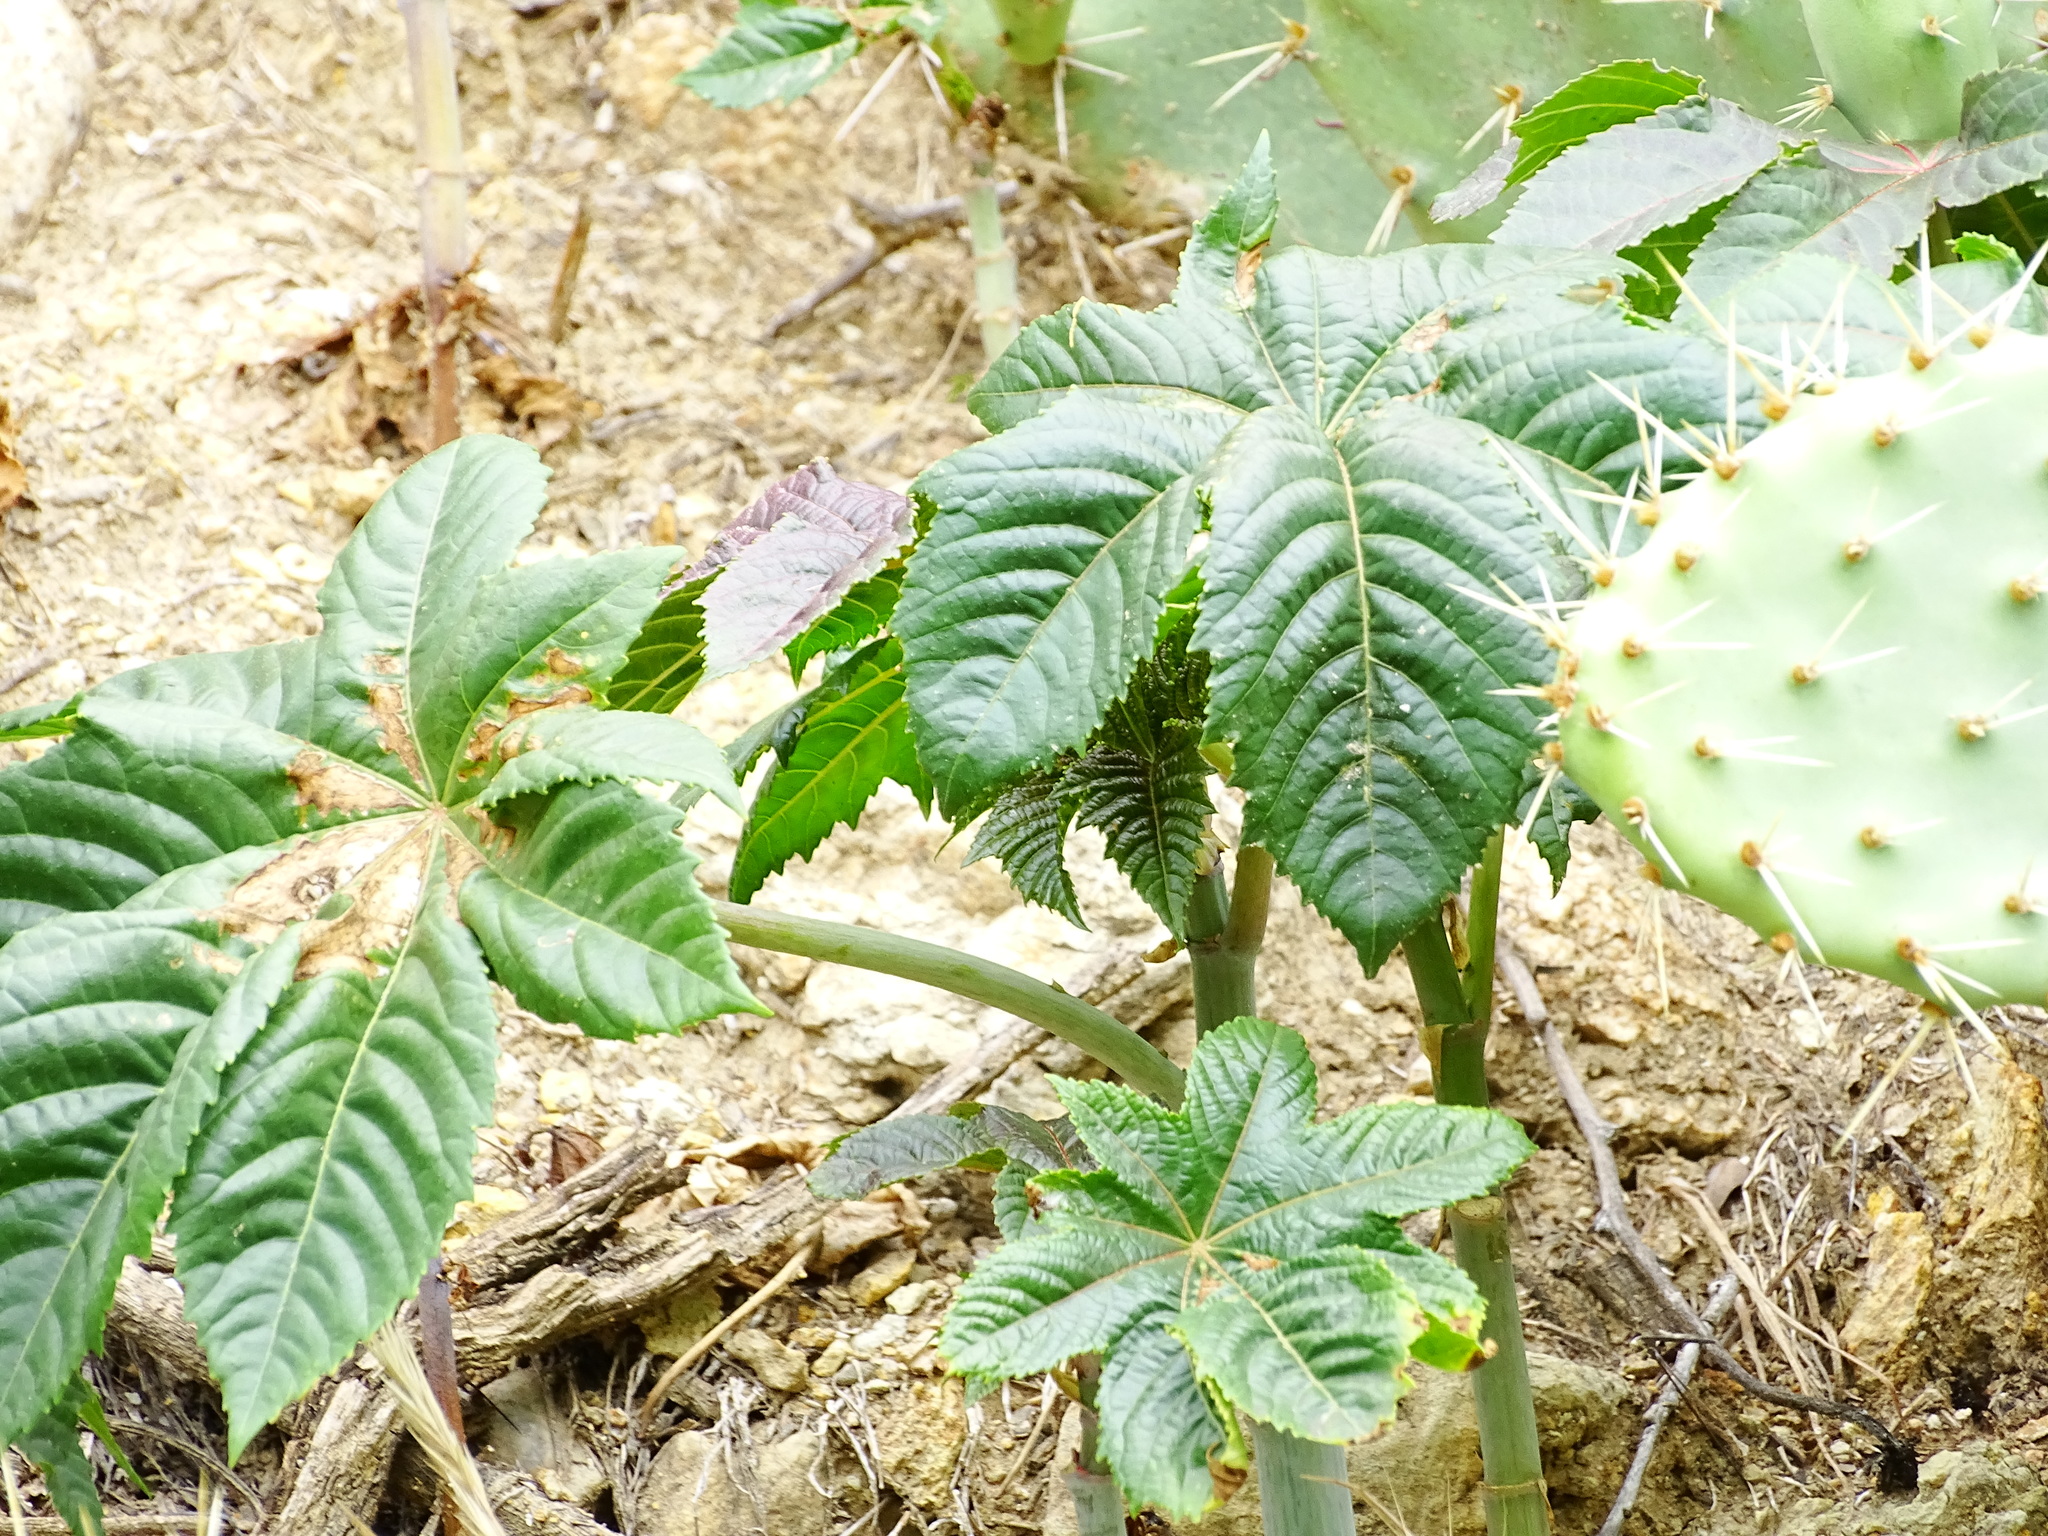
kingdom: Plantae
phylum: Tracheophyta
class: Magnoliopsida
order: Malpighiales
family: Euphorbiaceae
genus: Ricinus
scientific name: Ricinus communis
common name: Castor-oil-plant
